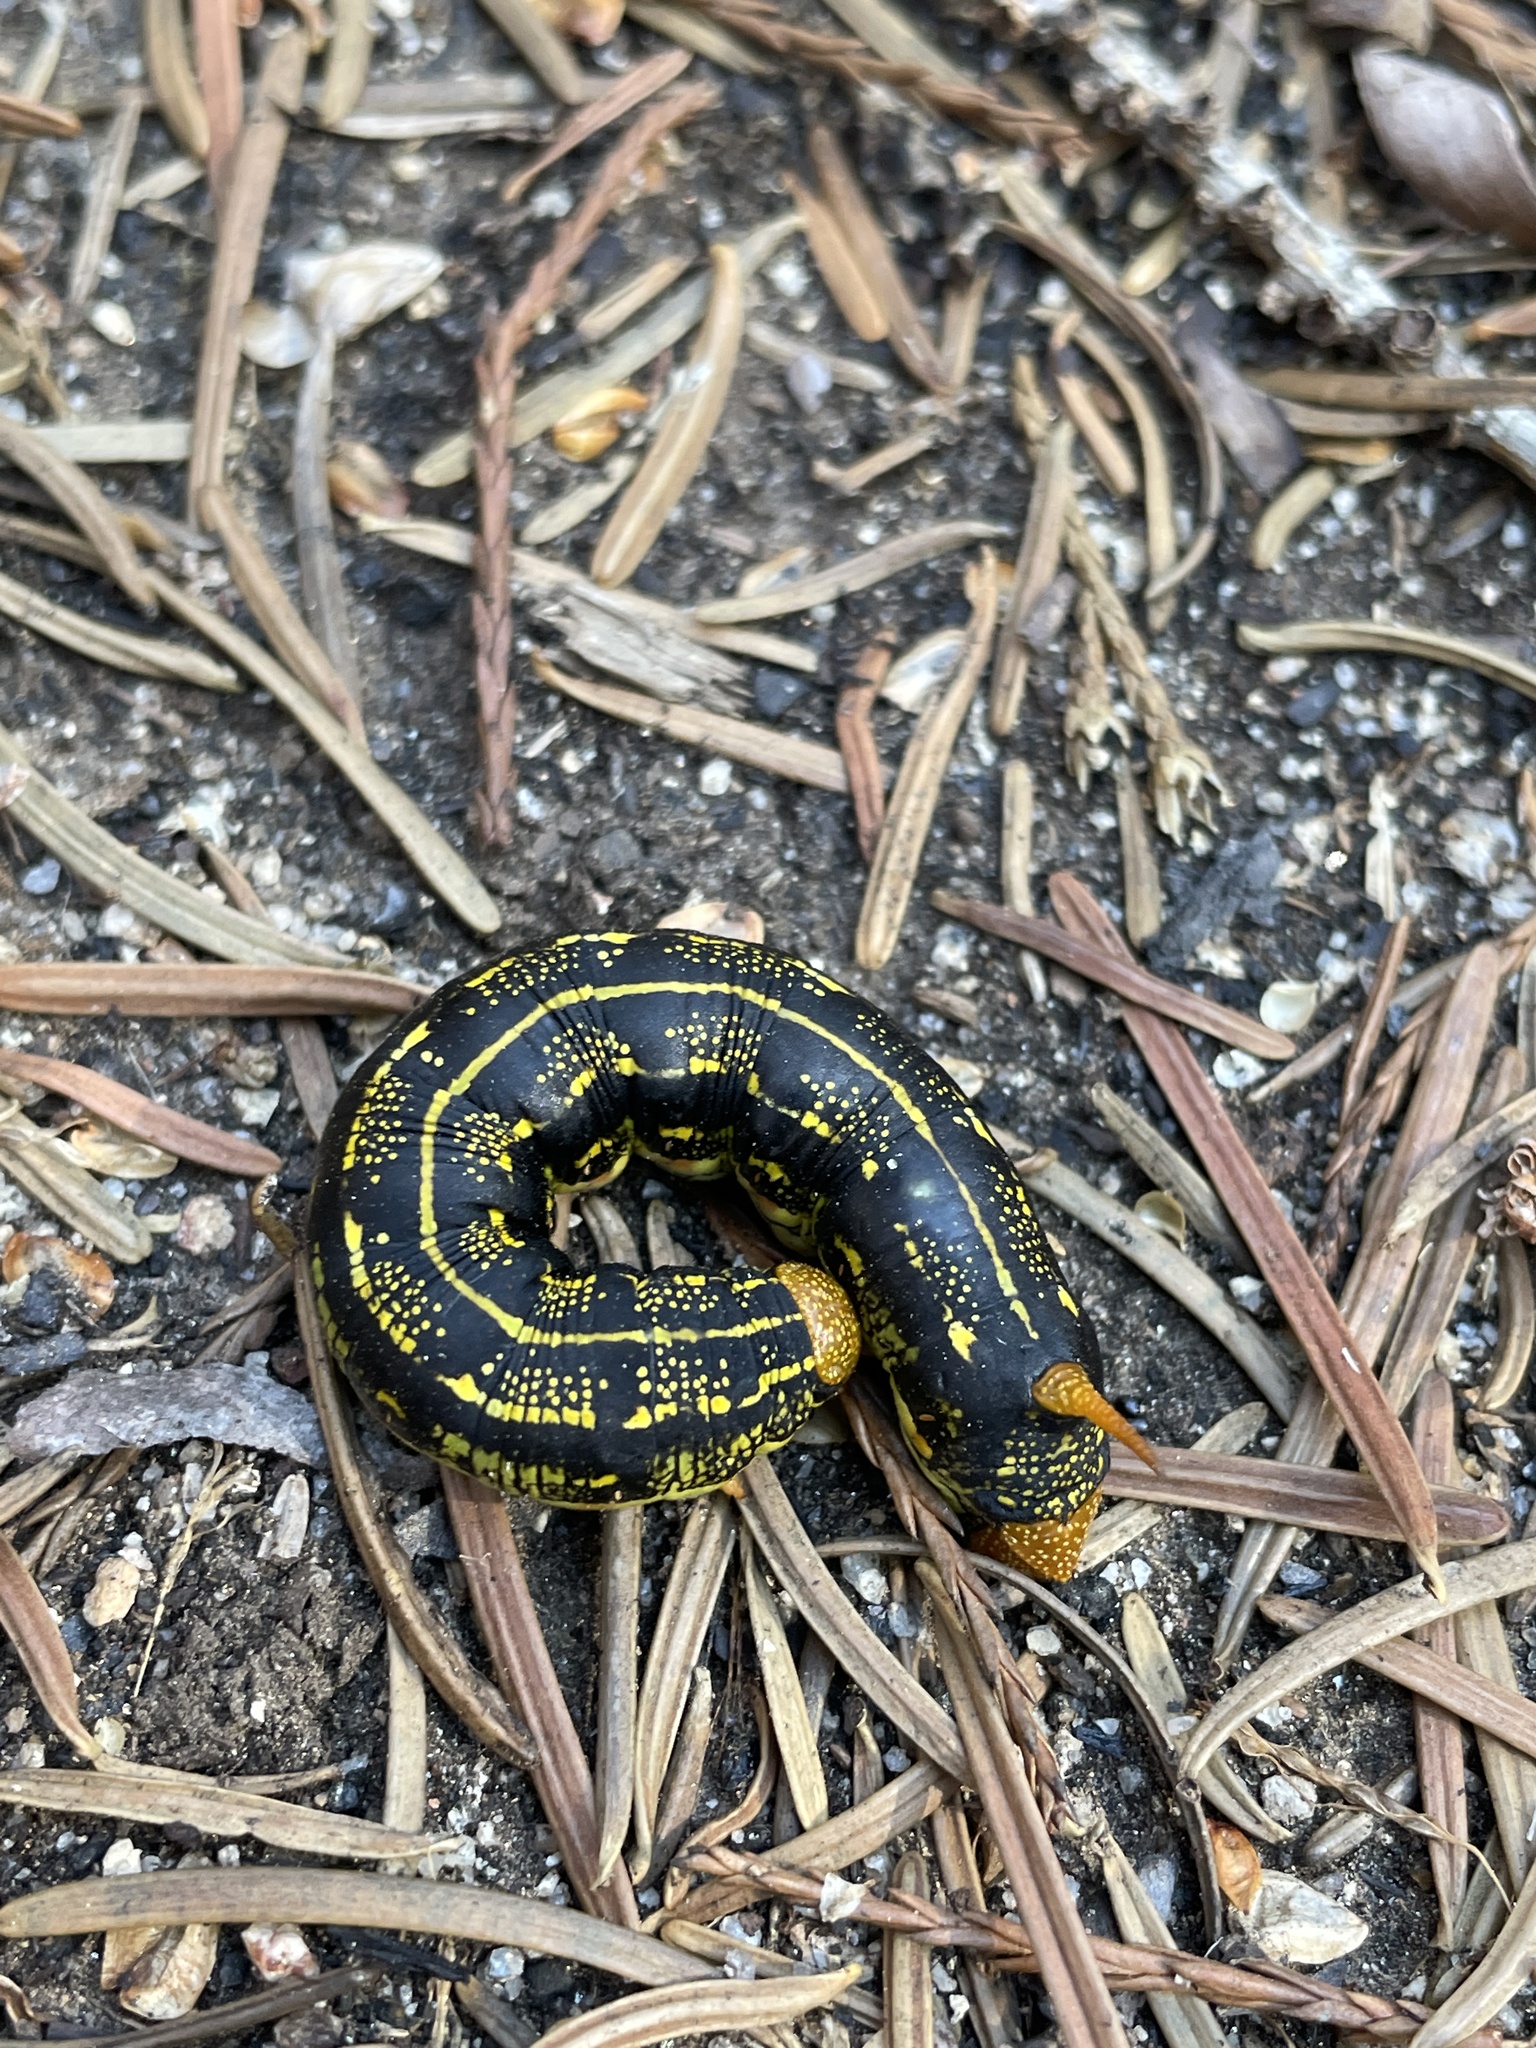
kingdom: Animalia
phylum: Arthropoda
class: Insecta
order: Lepidoptera
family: Sphingidae
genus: Hyles
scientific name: Hyles lineata
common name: White-lined sphinx
